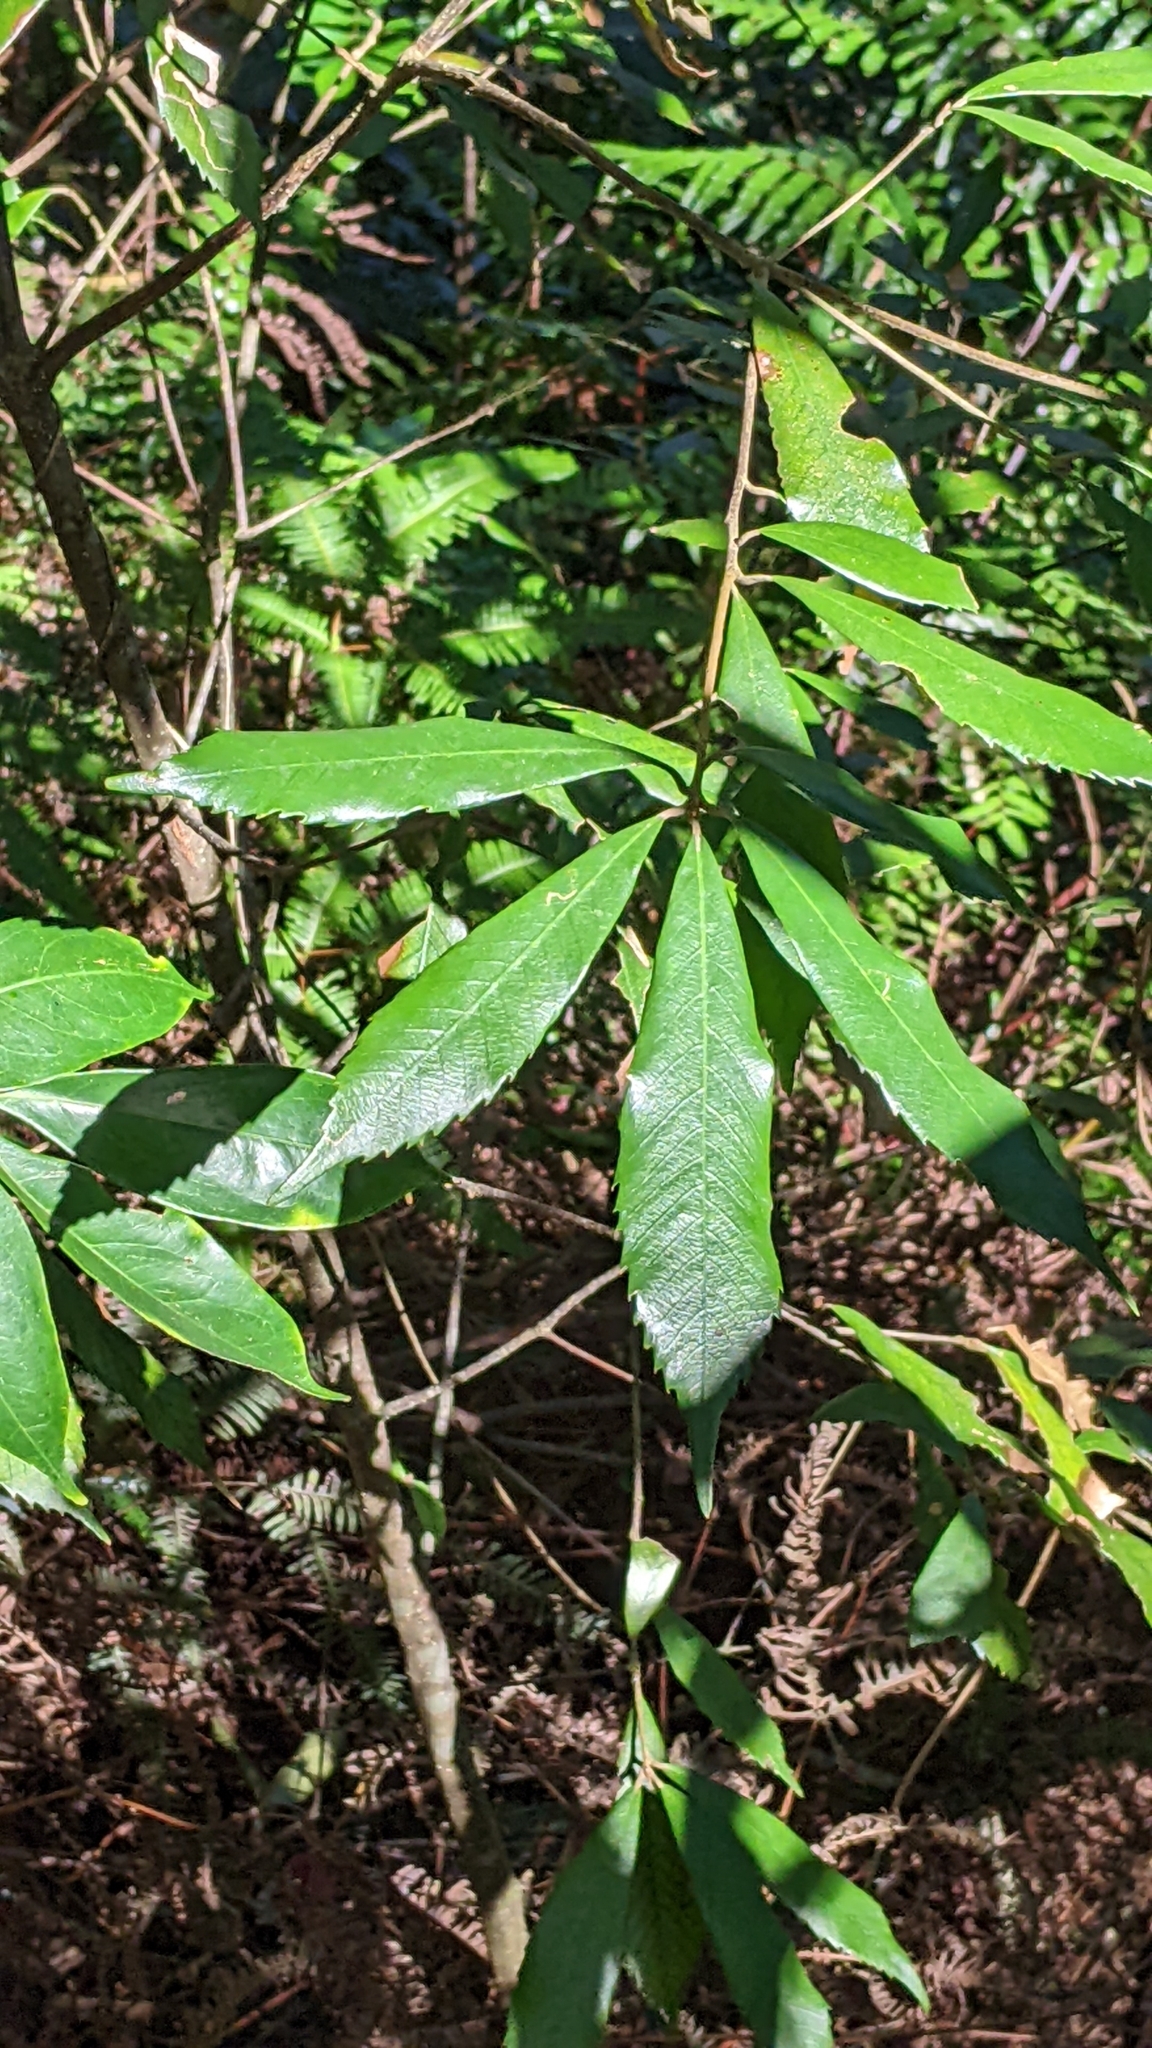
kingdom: Plantae
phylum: Tracheophyta
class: Magnoliopsida
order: Fagales
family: Fagaceae
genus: Quercus
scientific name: Quercus gilva
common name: Redbark oak
